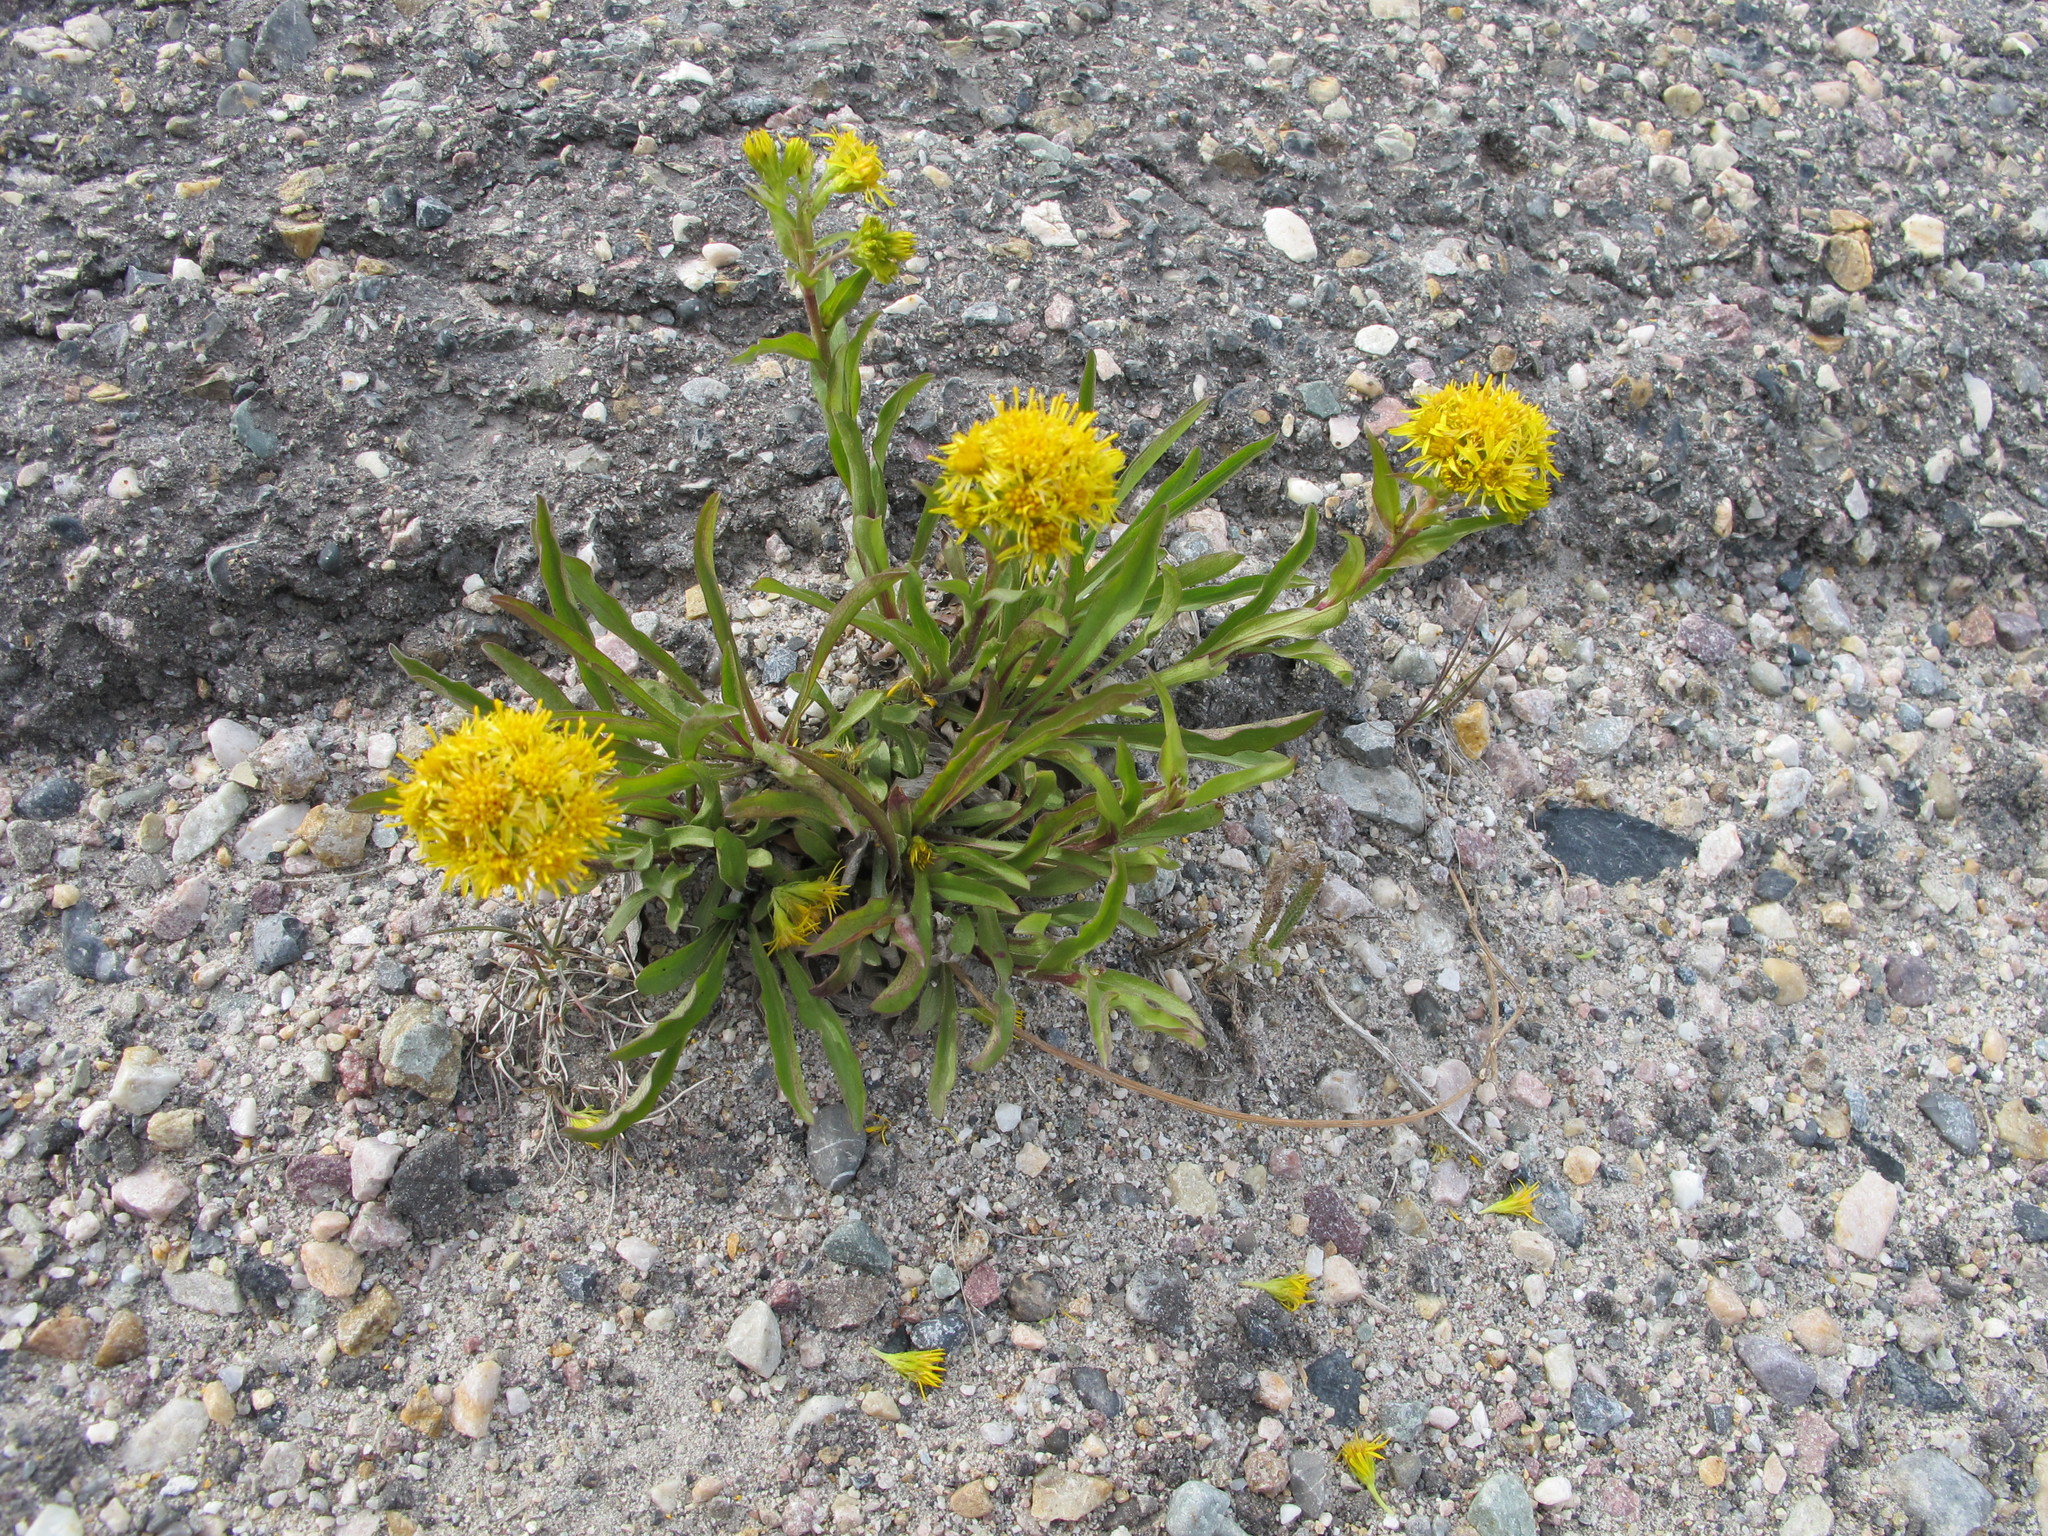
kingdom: Plantae
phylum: Tracheophyta
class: Magnoliopsida
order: Asterales
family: Asteraceae
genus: Solidago
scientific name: Solidago multiradiata
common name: Northern goldenrod
